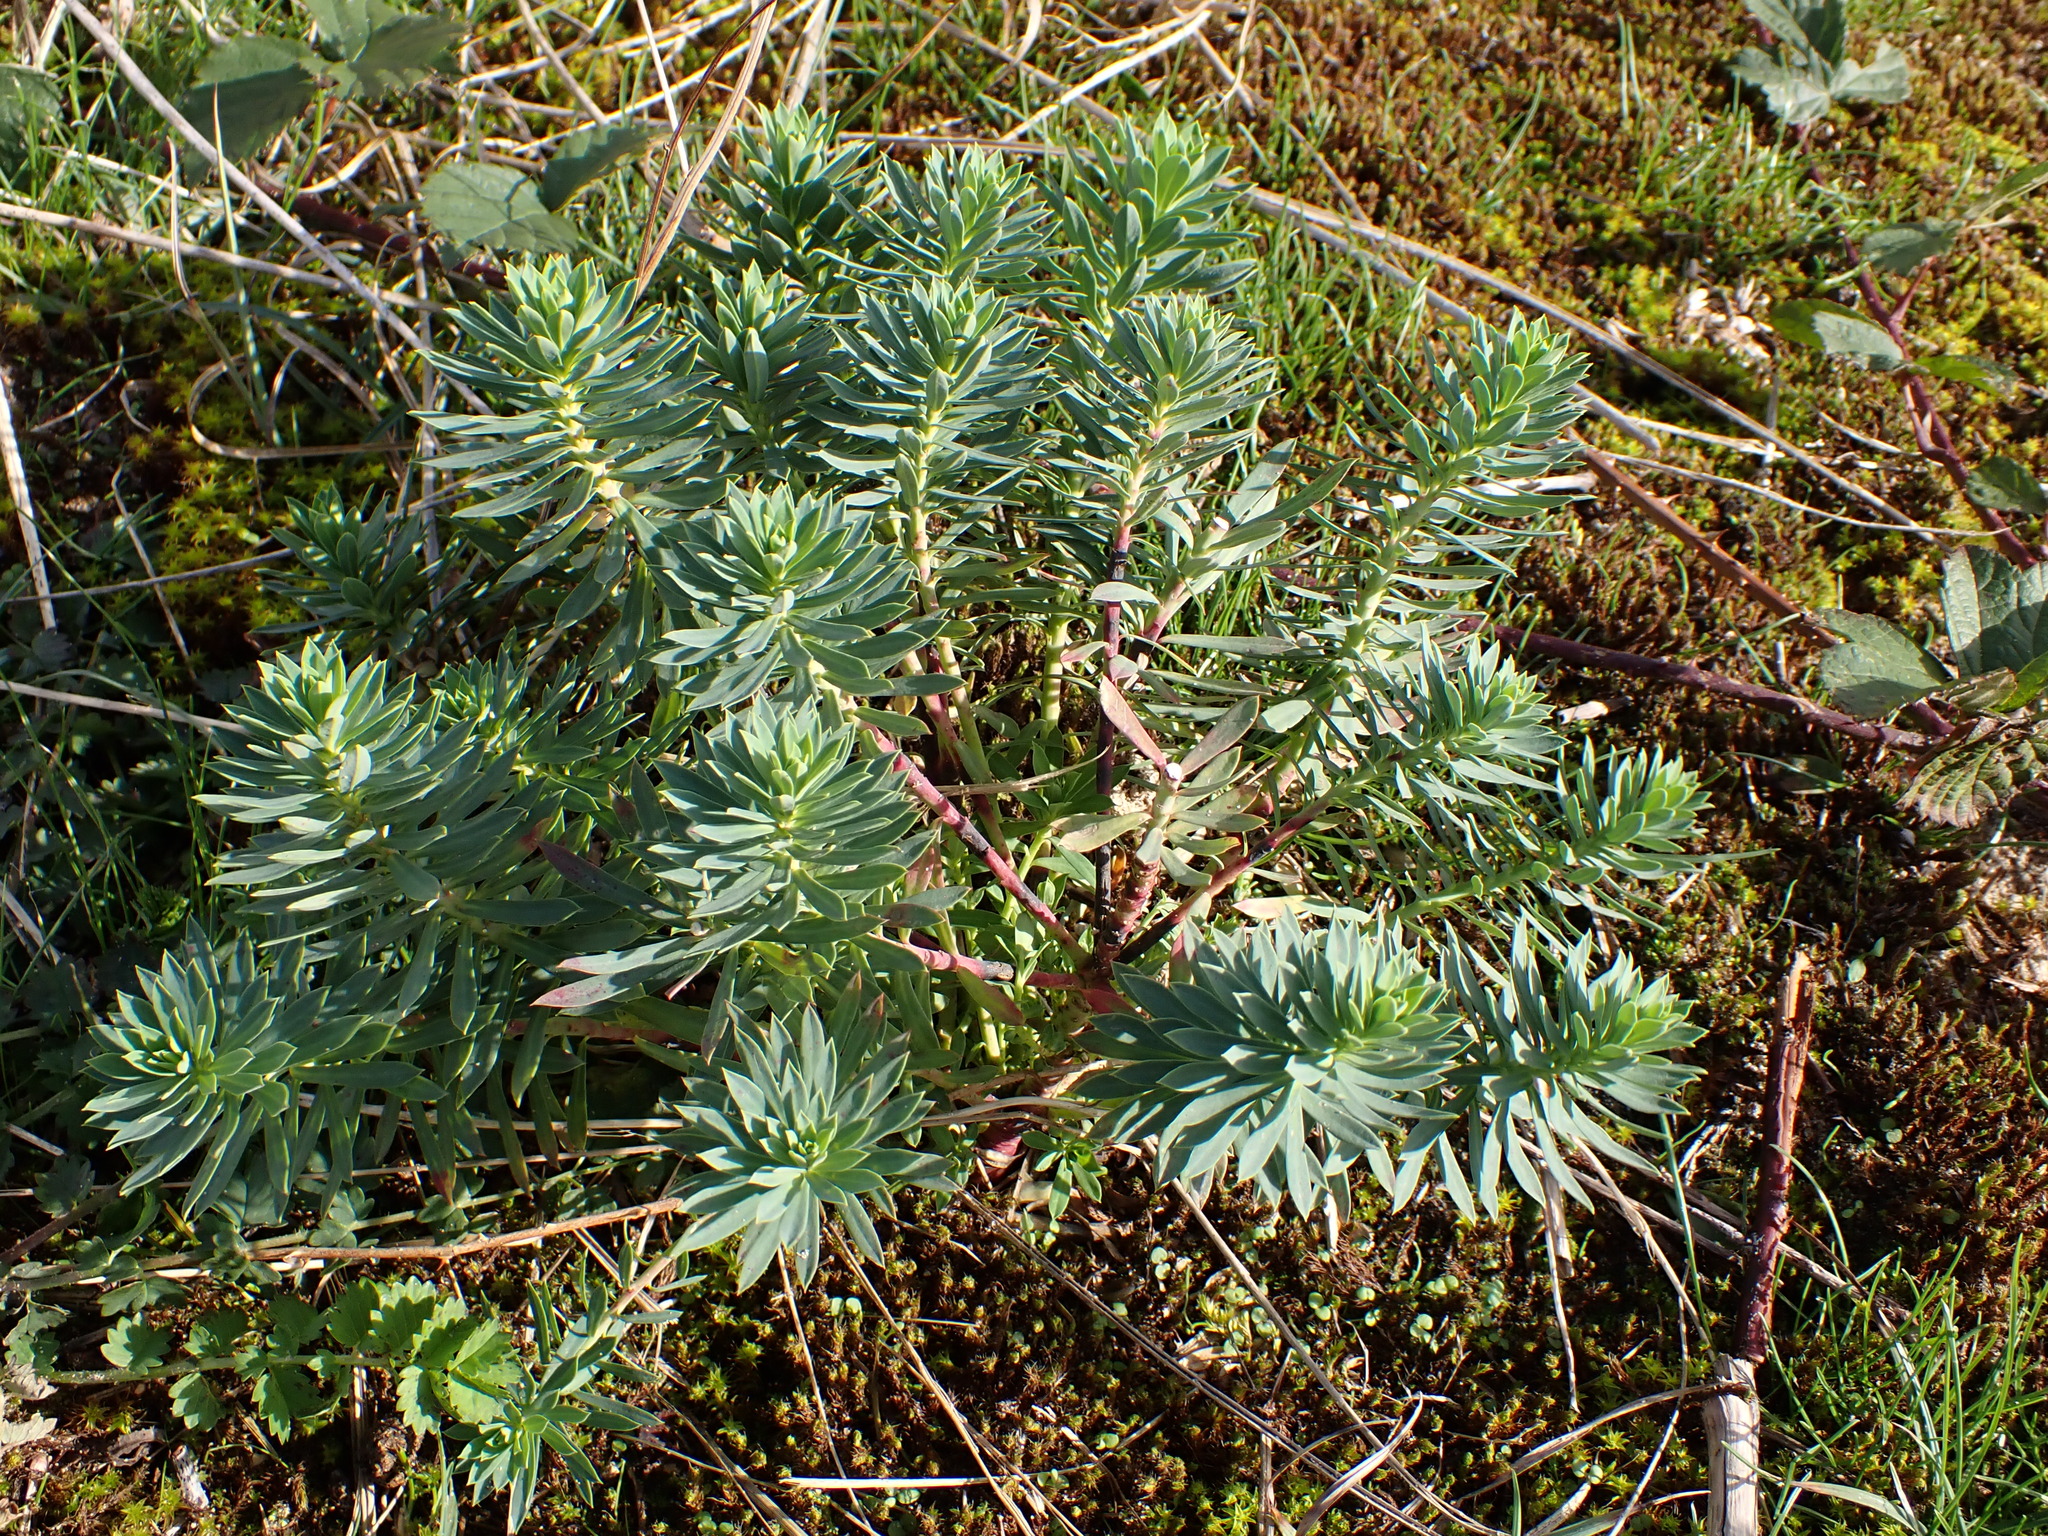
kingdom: Plantae
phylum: Tracheophyta
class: Magnoliopsida
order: Malpighiales
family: Euphorbiaceae
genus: Euphorbia
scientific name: Euphorbia portlandica
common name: Portland spurge
